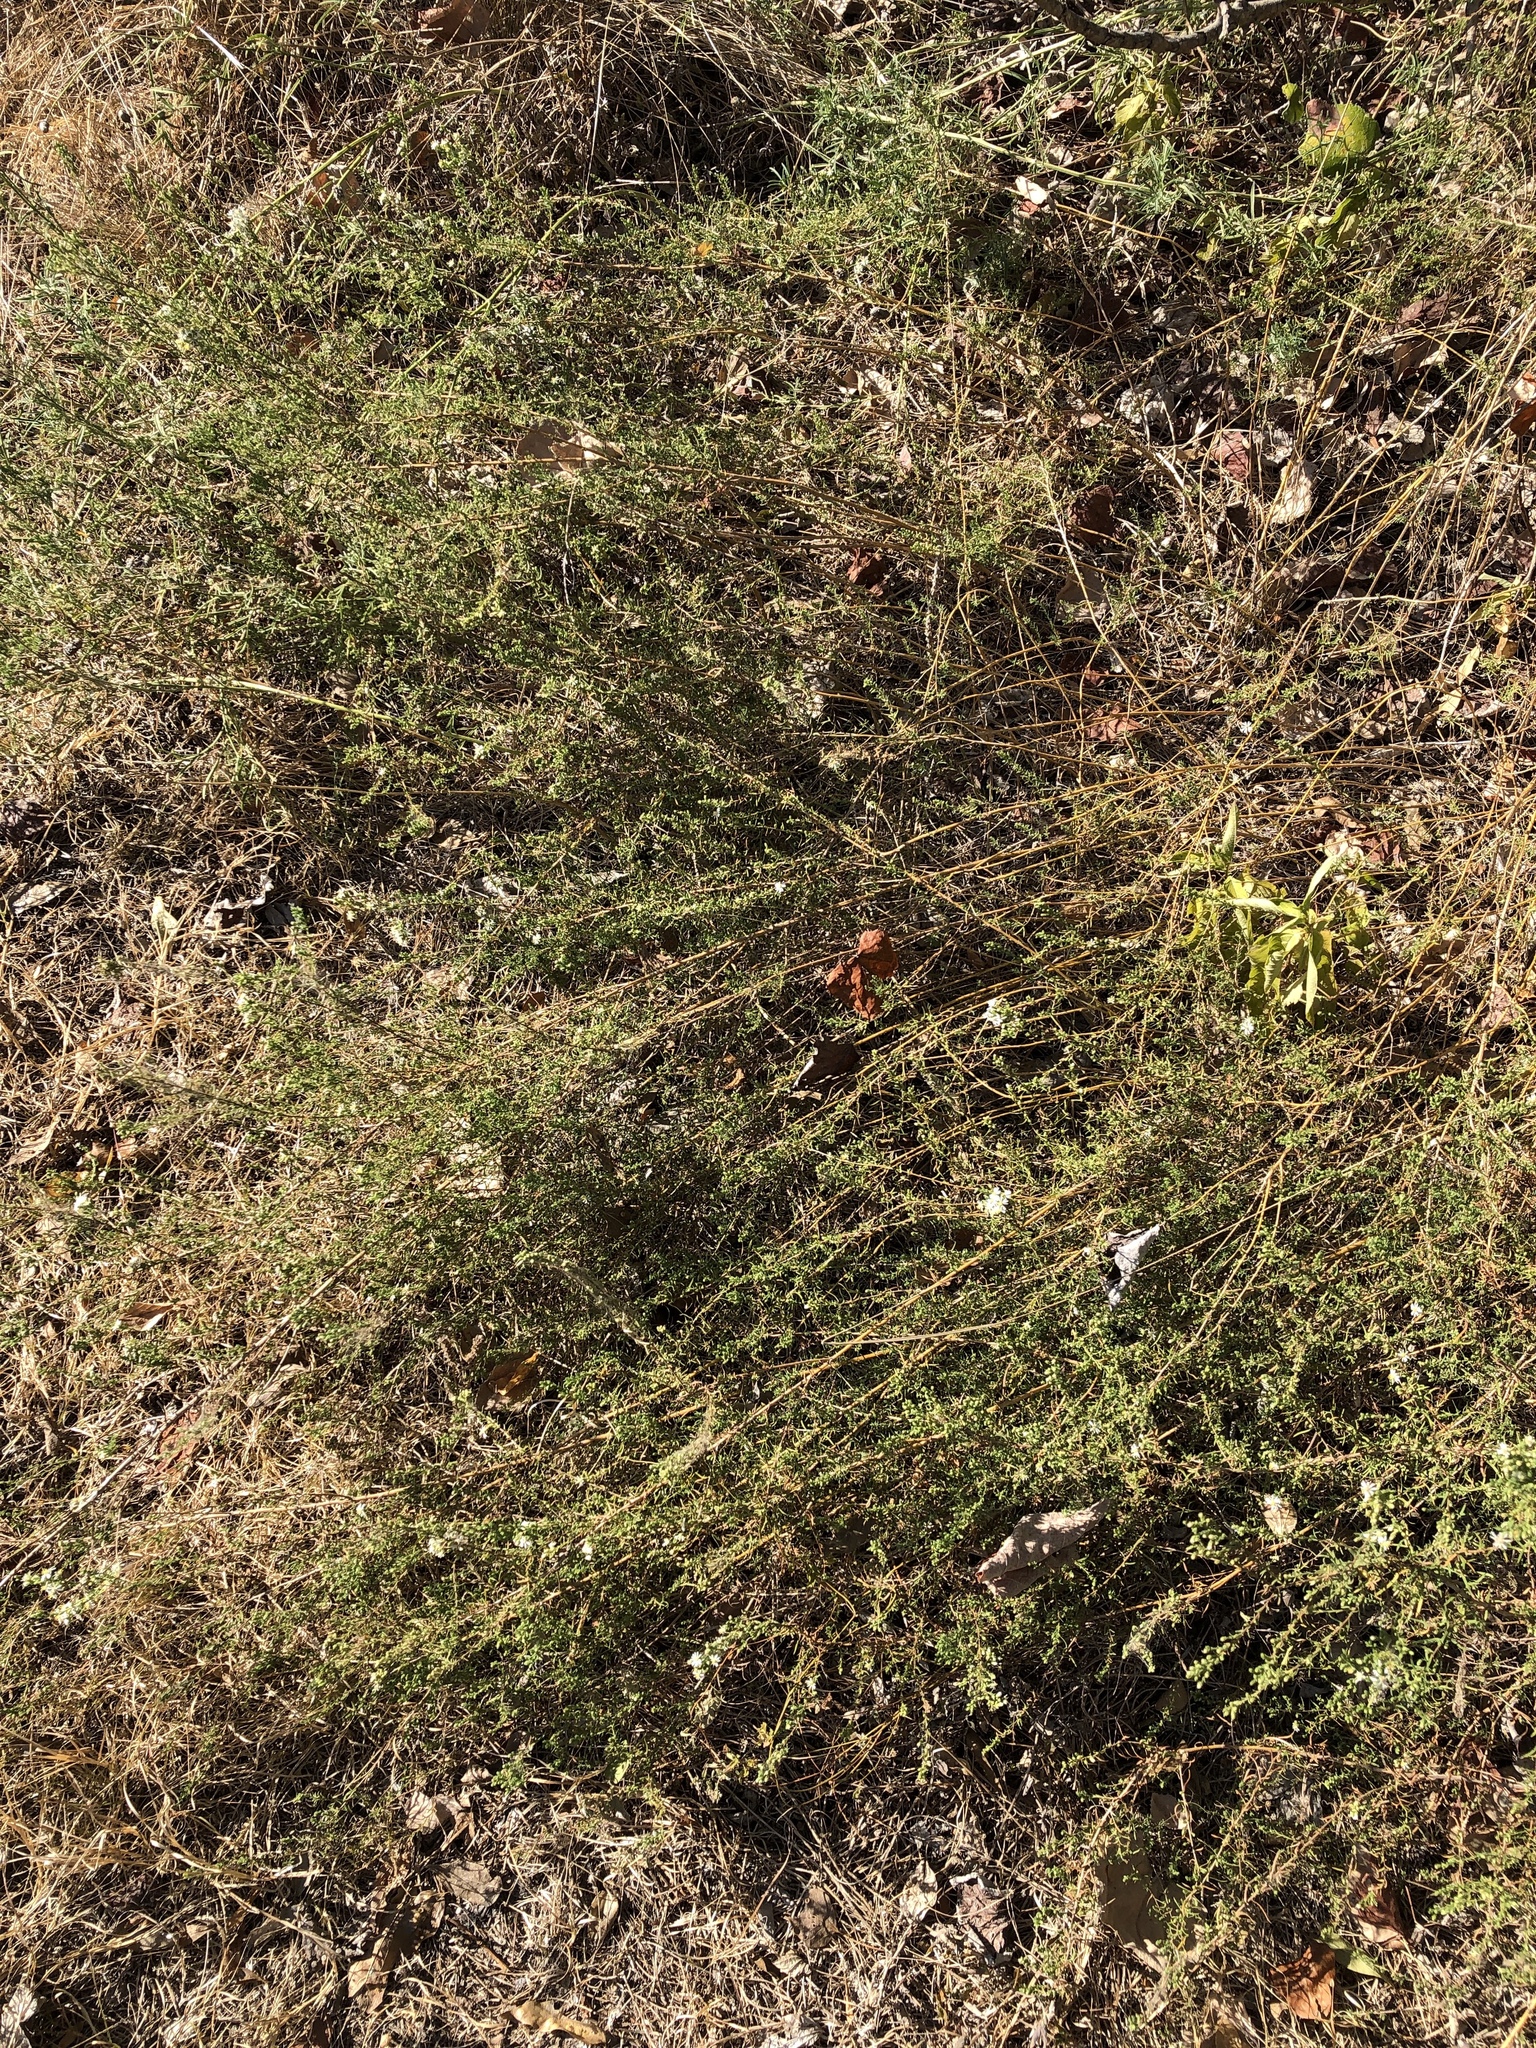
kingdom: Plantae
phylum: Tracheophyta
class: Magnoliopsida
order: Asterales
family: Asteraceae
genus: Symphyotrichum
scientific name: Symphyotrichum ericoides
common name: Heath aster
